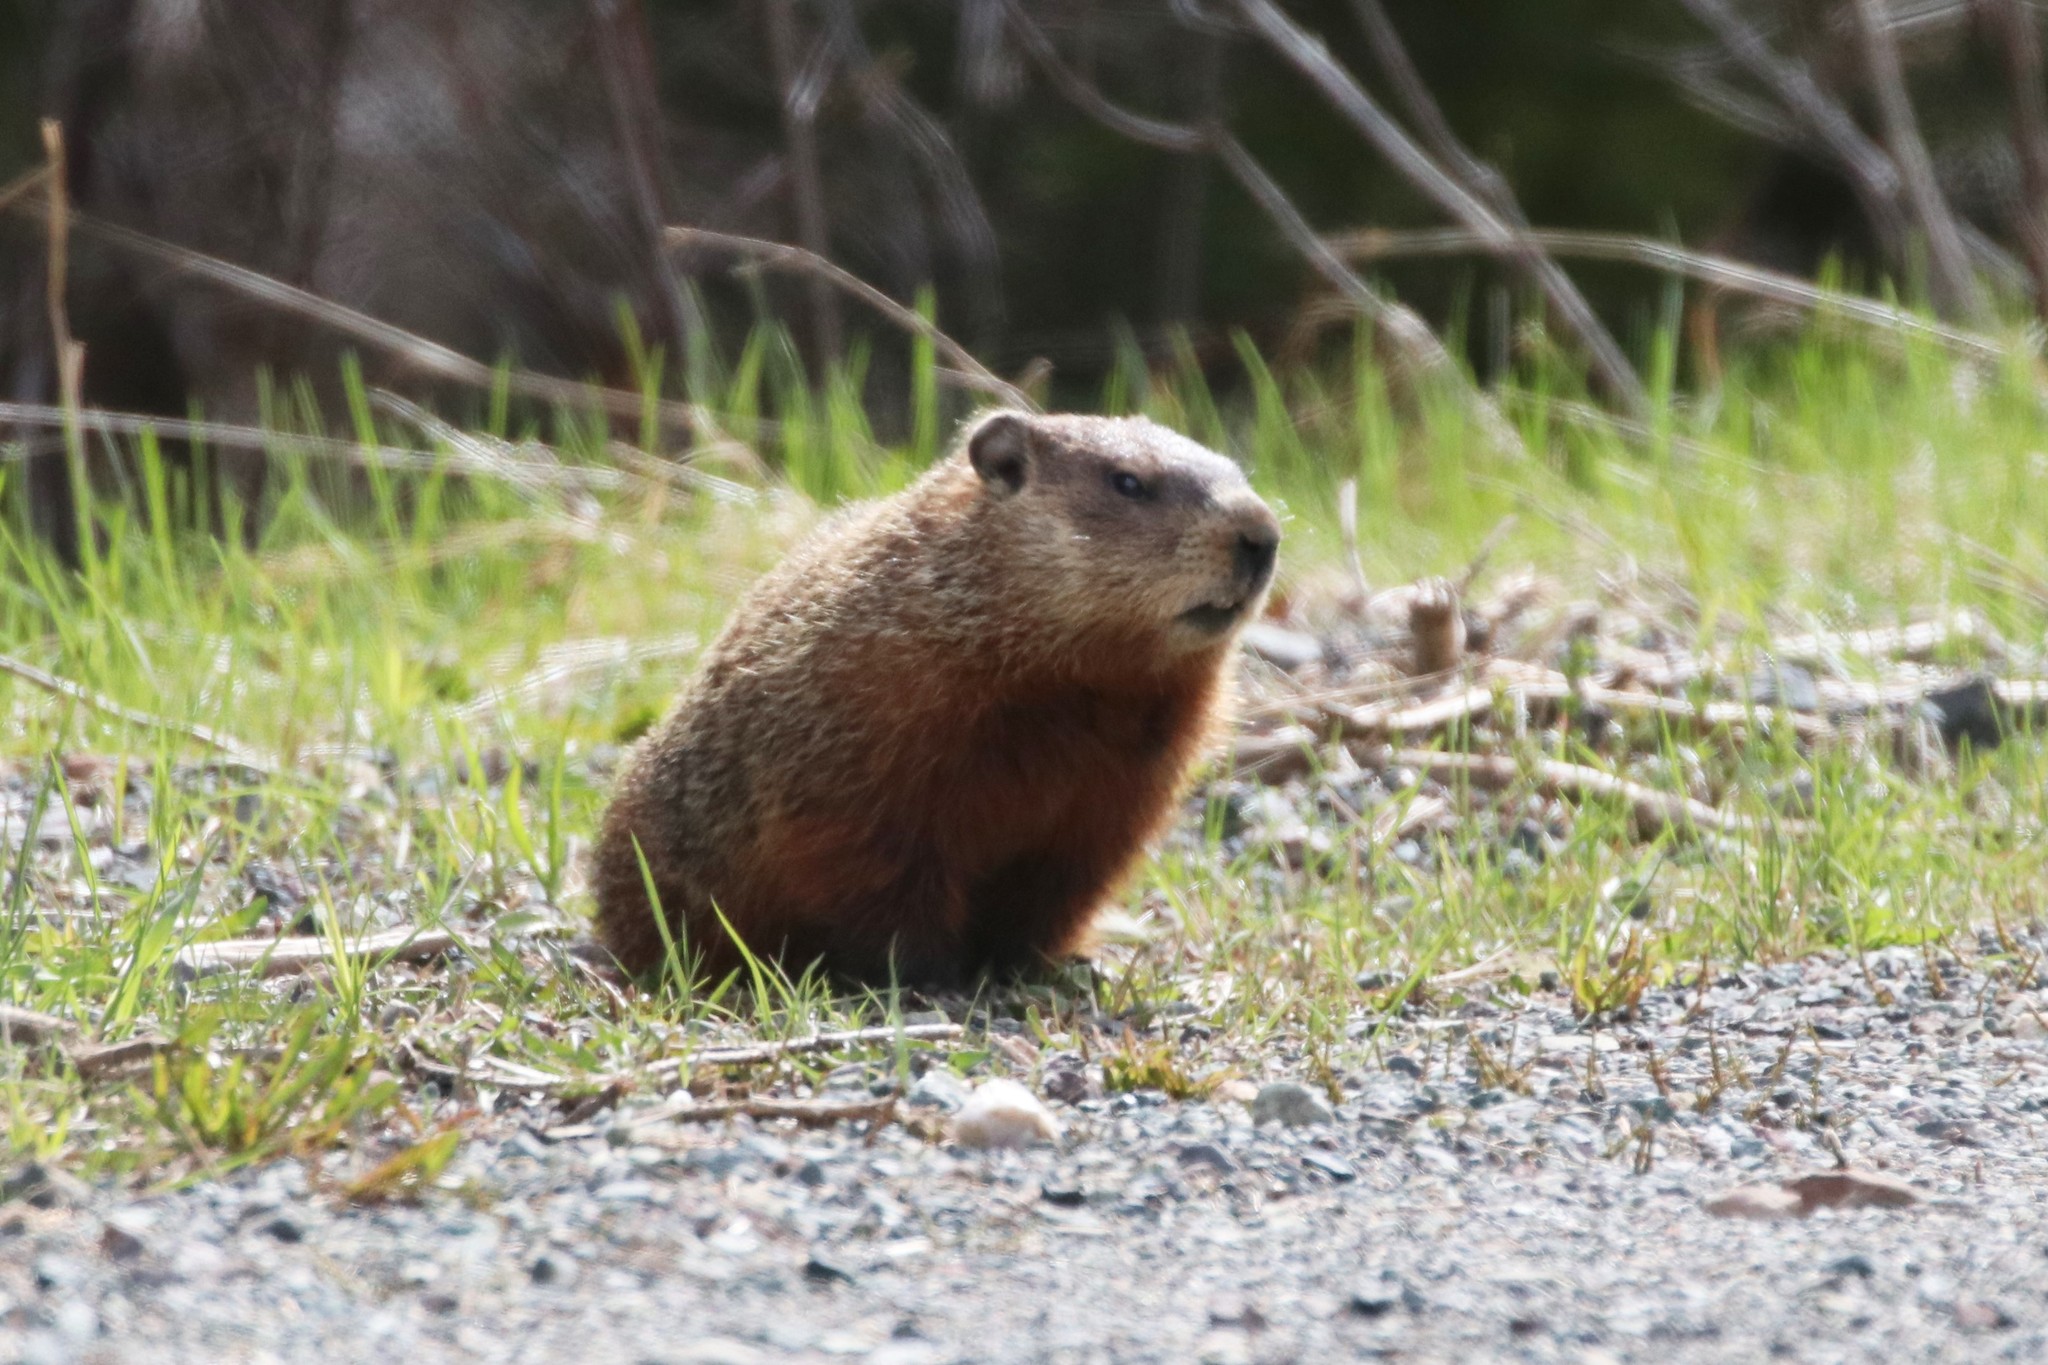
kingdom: Animalia
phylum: Chordata
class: Mammalia
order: Rodentia
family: Sciuridae
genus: Marmota
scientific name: Marmota monax
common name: Groundhog
